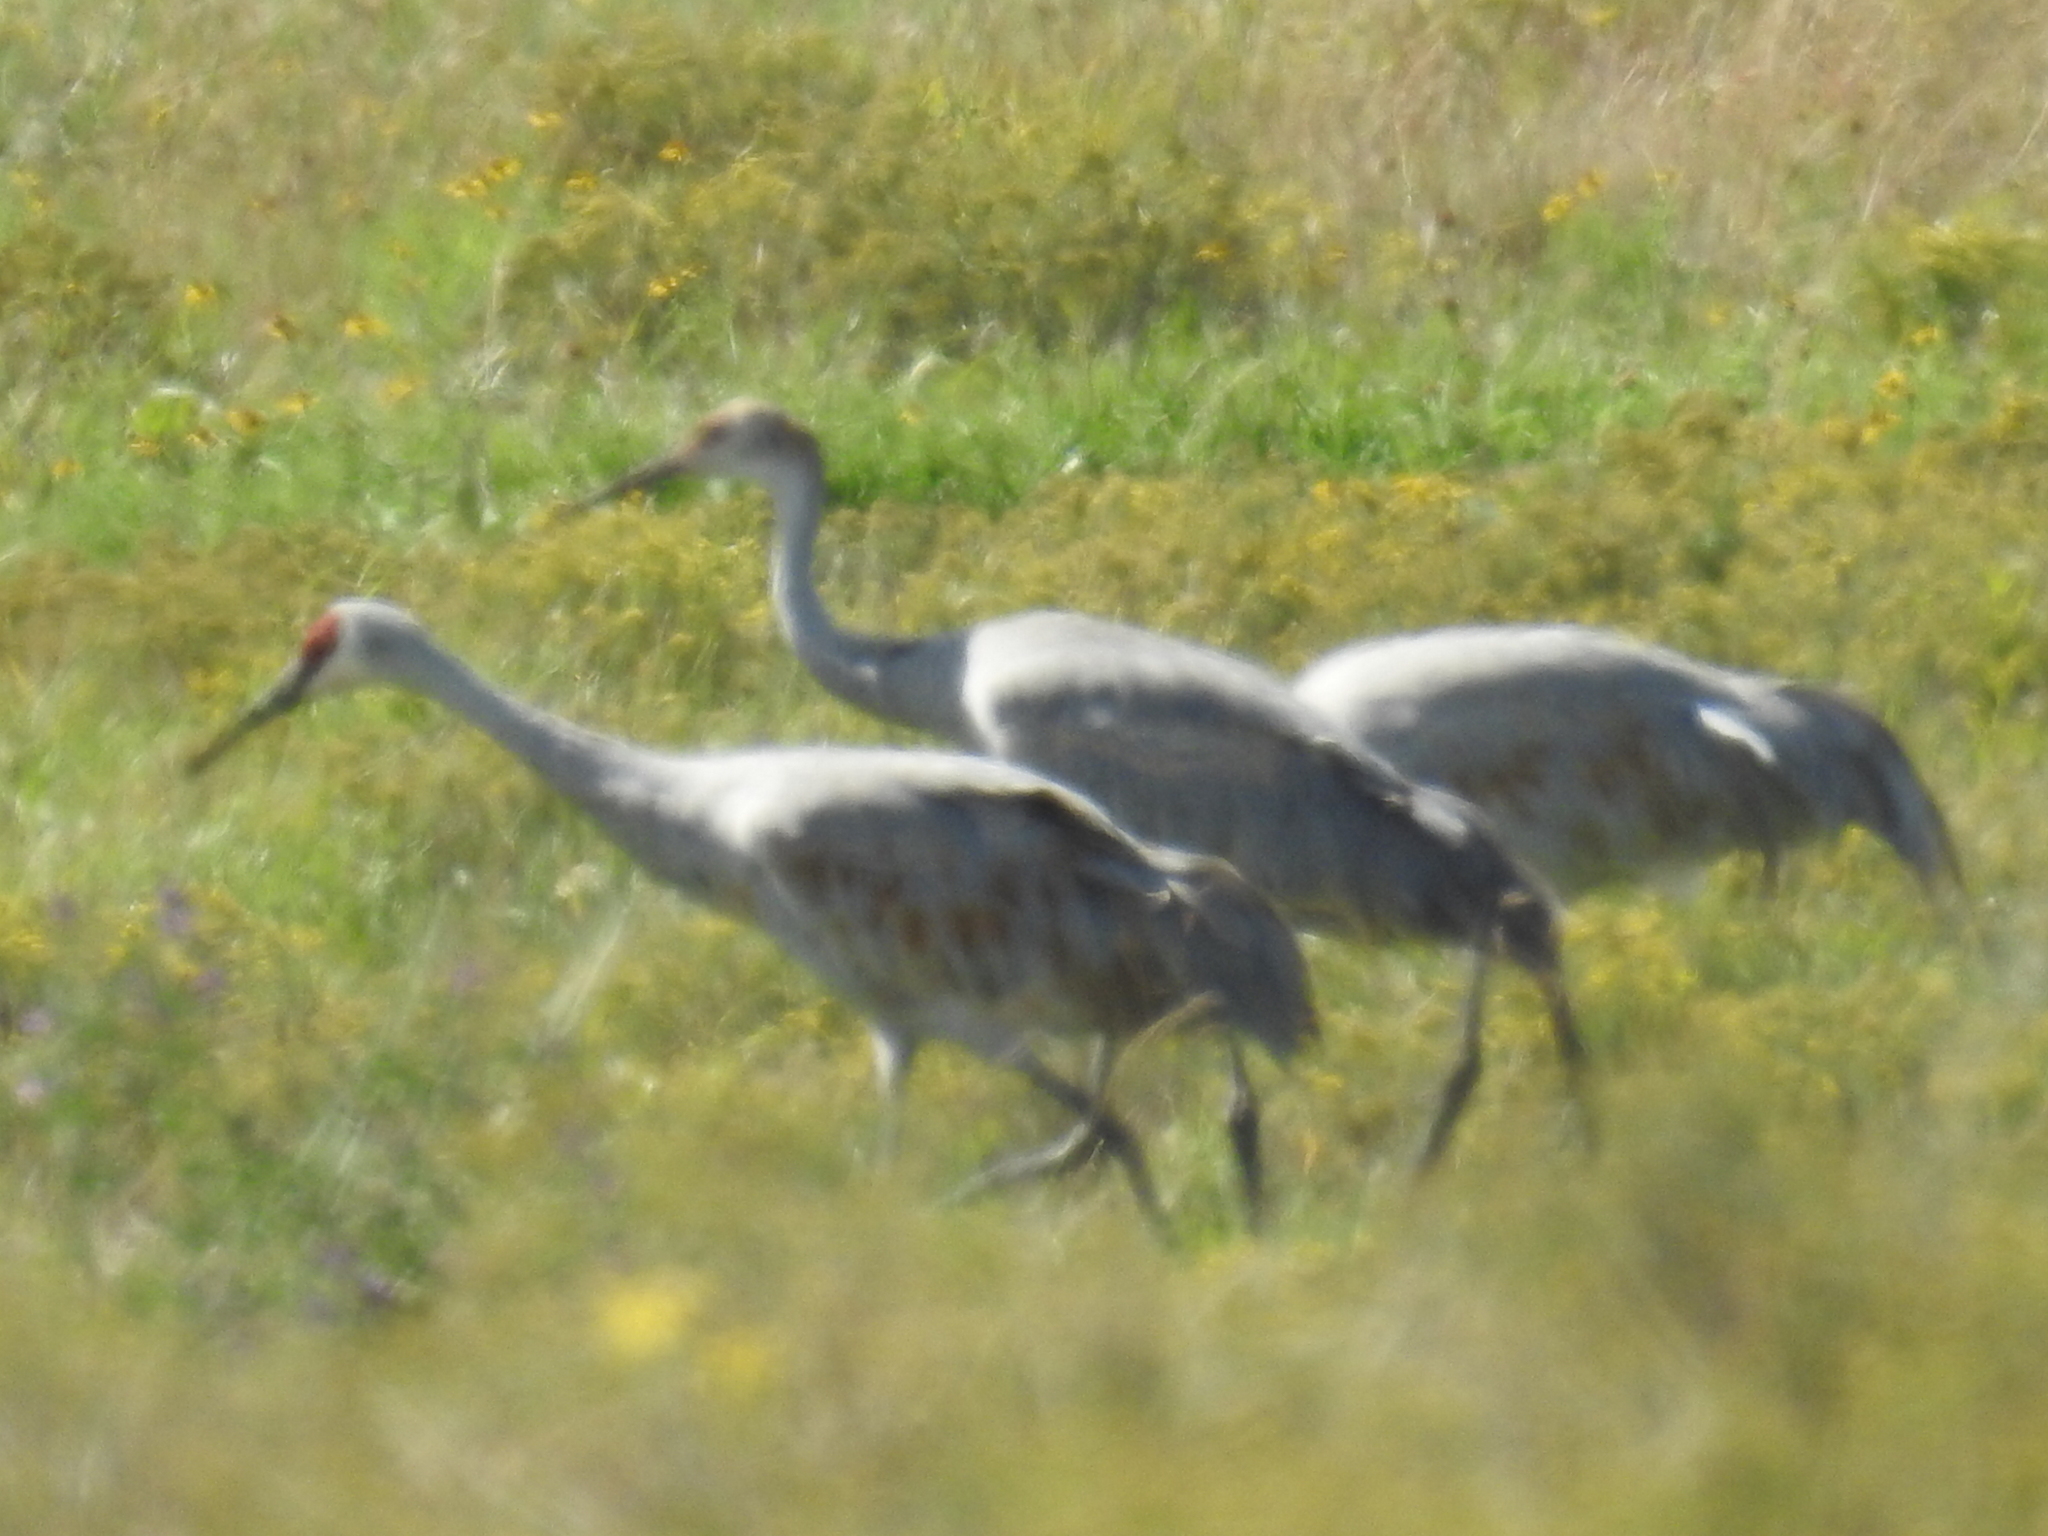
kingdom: Animalia
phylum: Chordata
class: Aves
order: Gruiformes
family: Gruidae
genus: Grus
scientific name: Grus canadensis
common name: Sandhill crane
